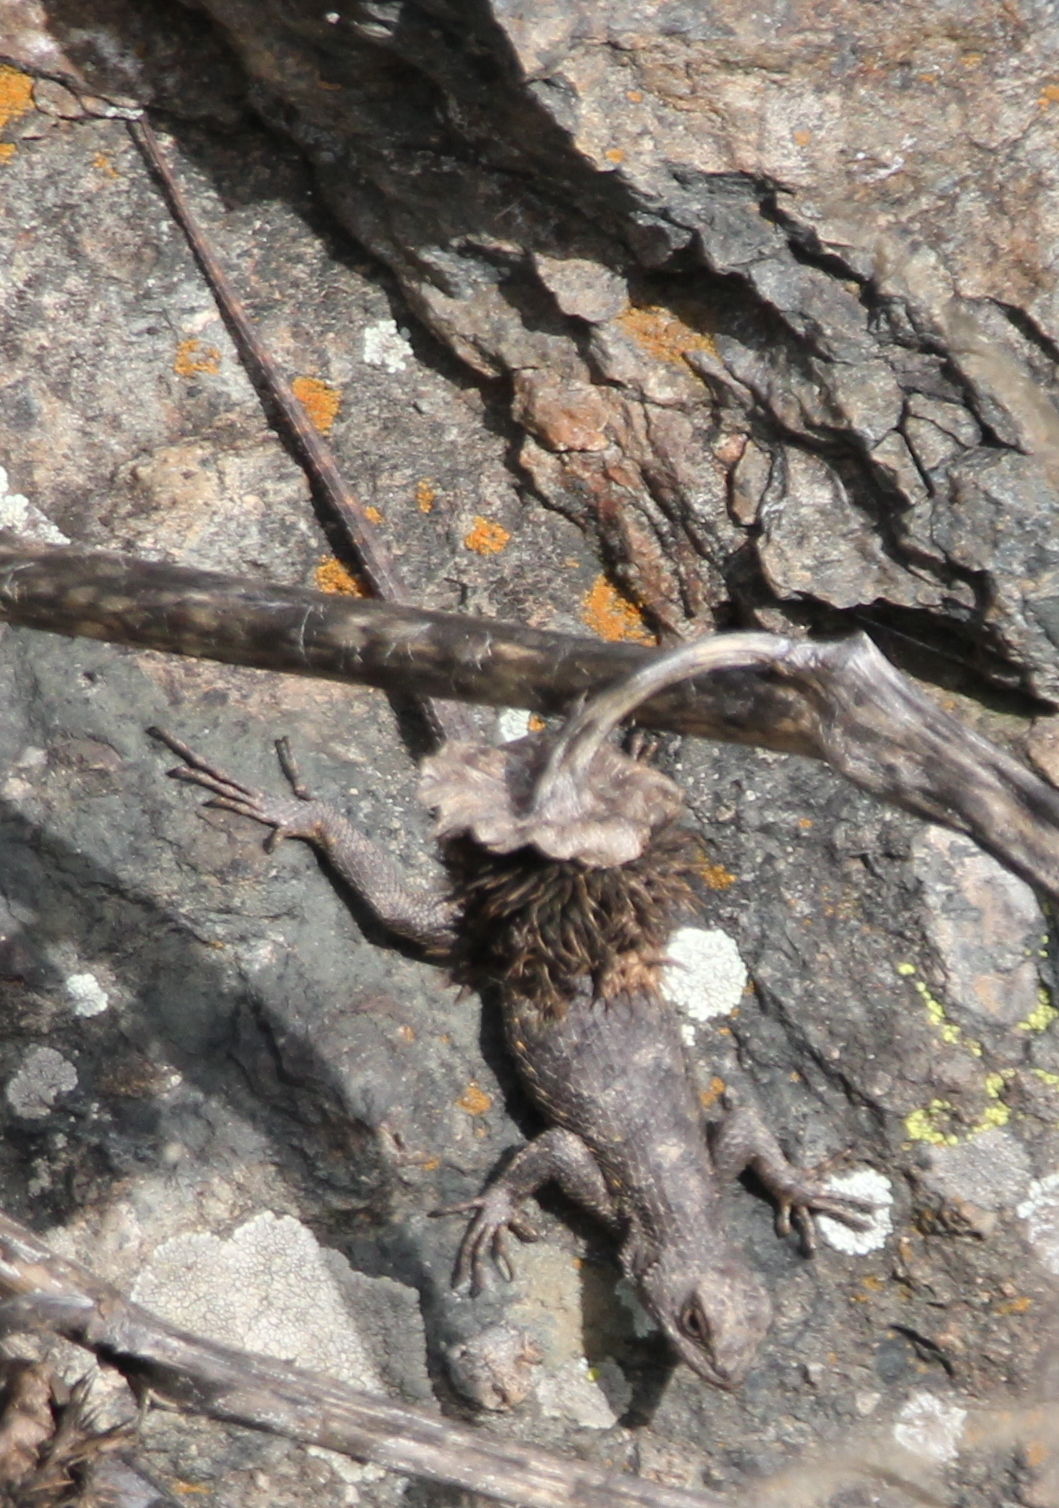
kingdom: Animalia
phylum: Chordata
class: Squamata
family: Phrynosomatidae
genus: Sceloporus
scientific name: Sceloporus occidentalis
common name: Western fence lizard
